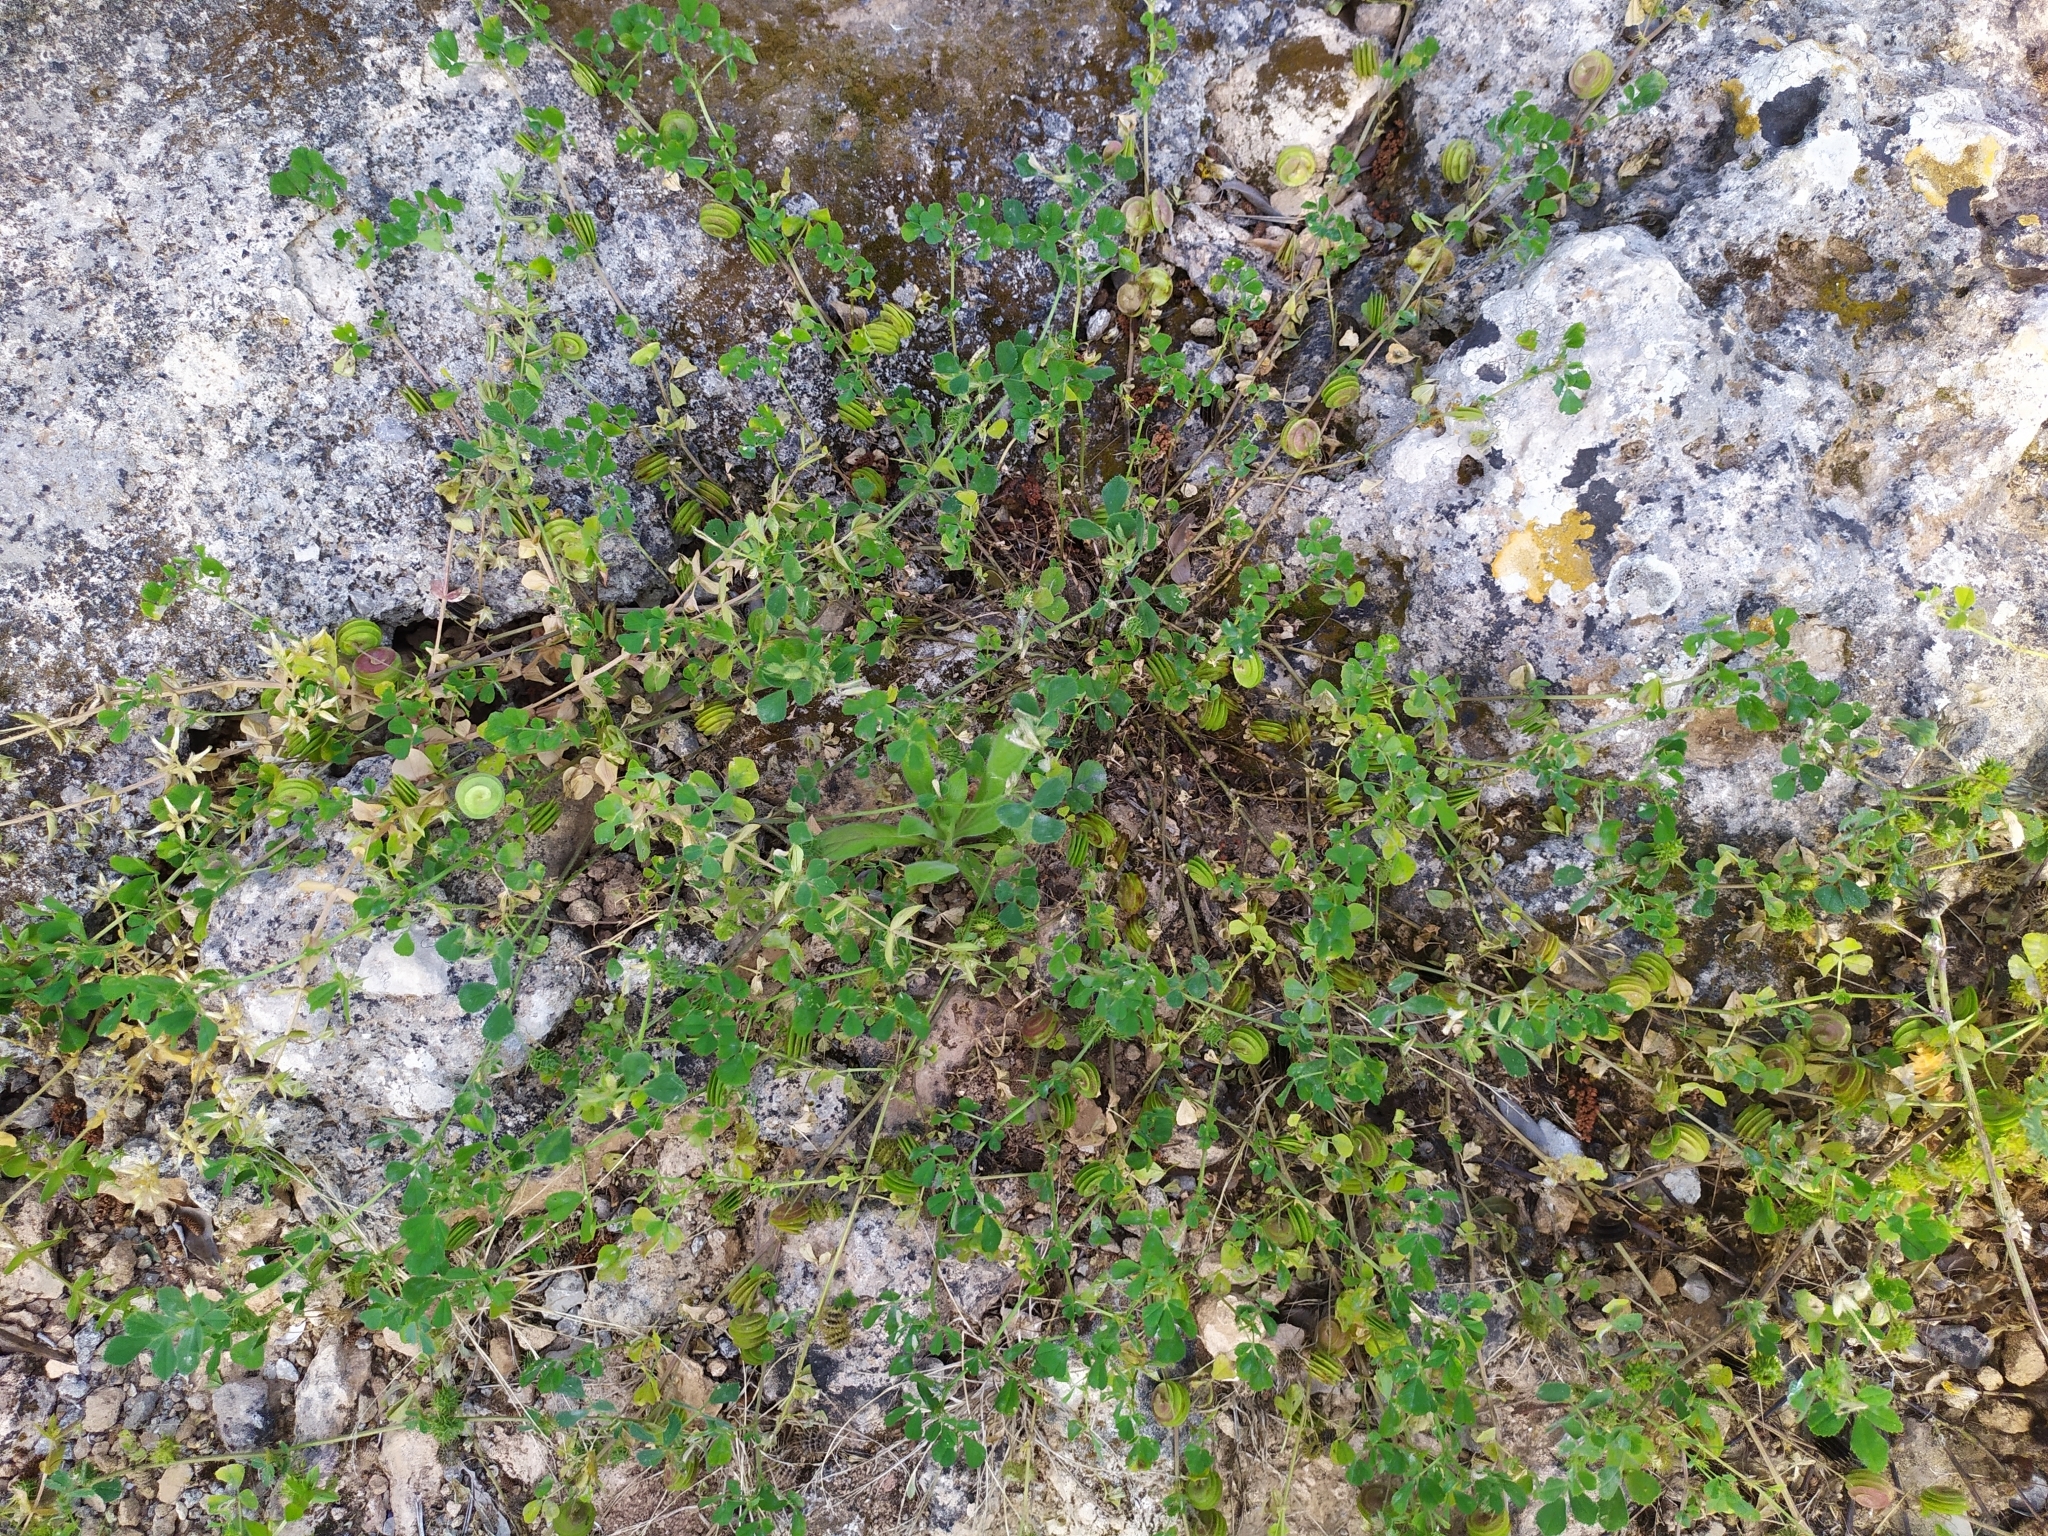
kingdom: Plantae
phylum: Tracheophyta
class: Magnoliopsida
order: Fabales
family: Fabaceae
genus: Medicago
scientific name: Medicago polymorpha
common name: Burclover
